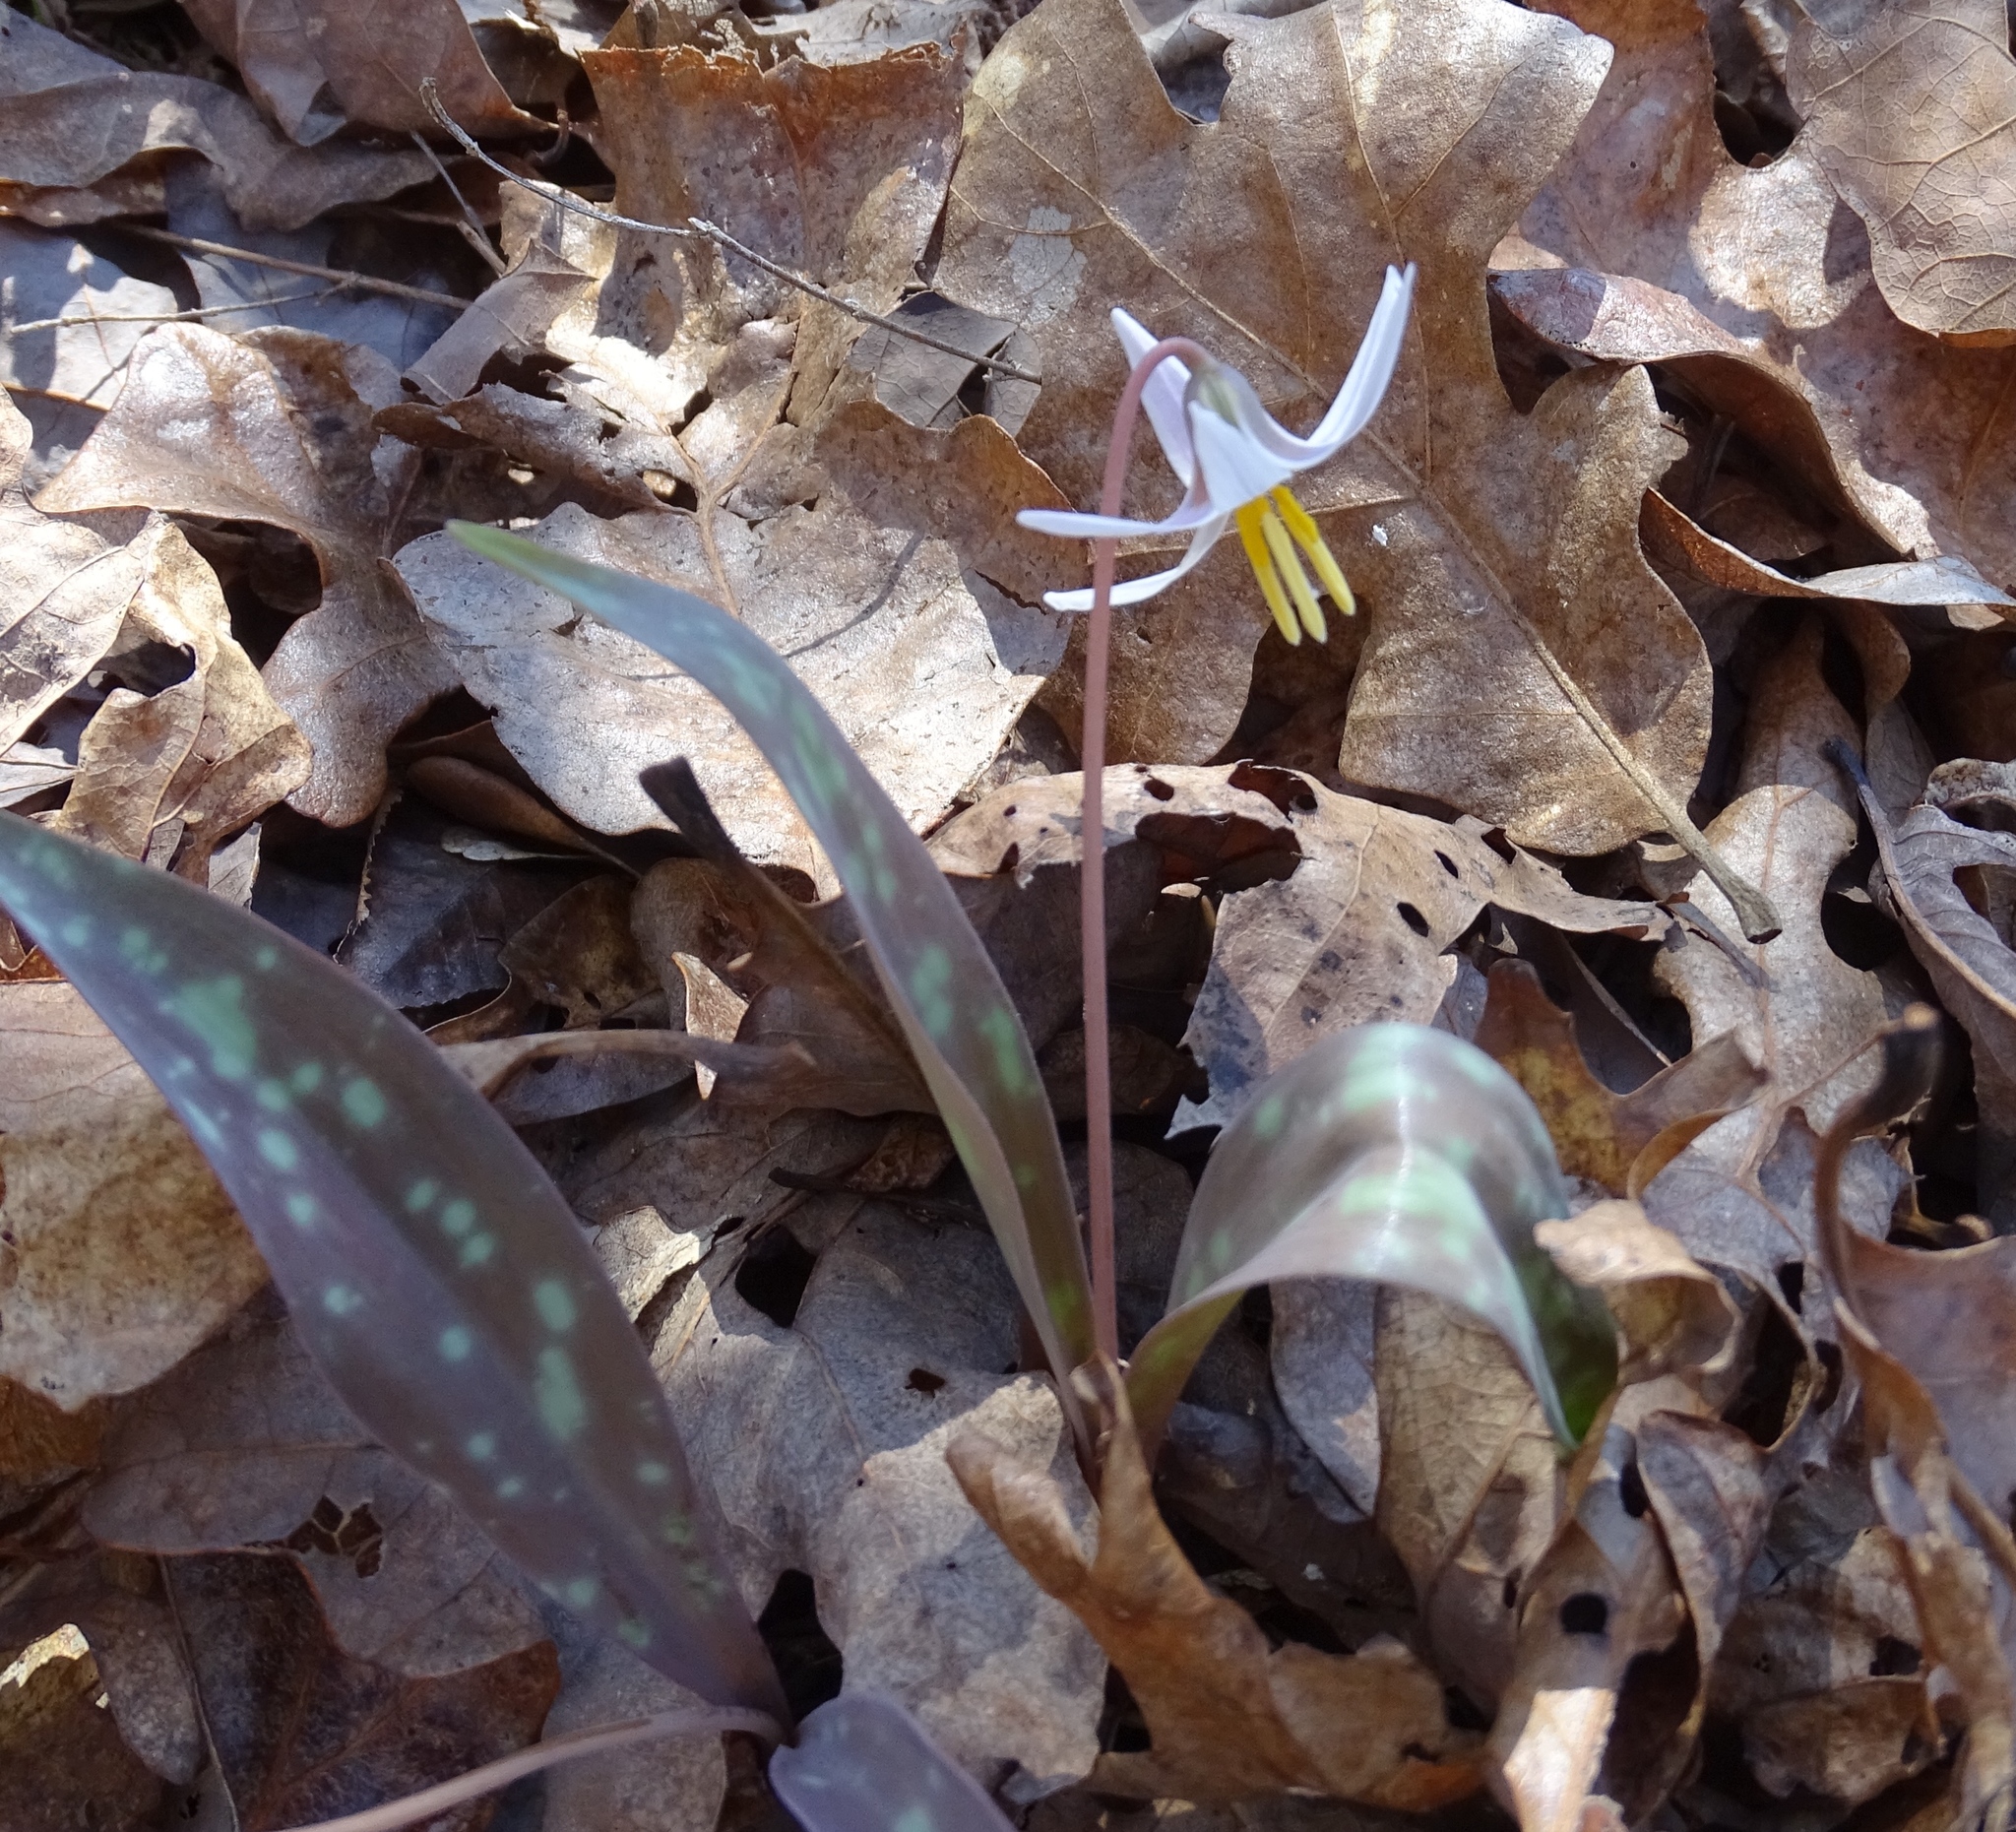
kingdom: Plantae
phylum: Tracheophyta
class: Liliopsida
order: Liliales
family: Liliaceae
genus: Erythronium
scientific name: Erythronium albidum
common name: White trout-lily
